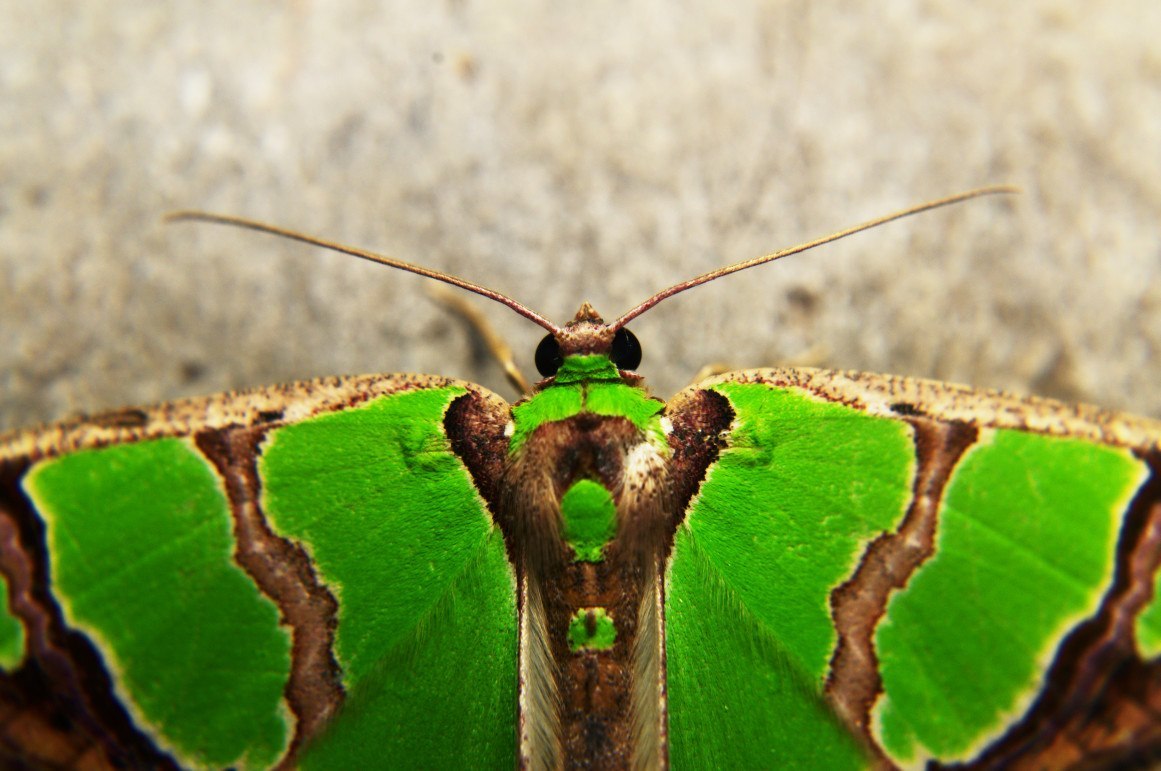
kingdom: Animalia
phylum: Arthropoda
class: Insecta
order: Lepidoptera
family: Geometridae
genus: Agathia
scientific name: Agathia hemithearia
